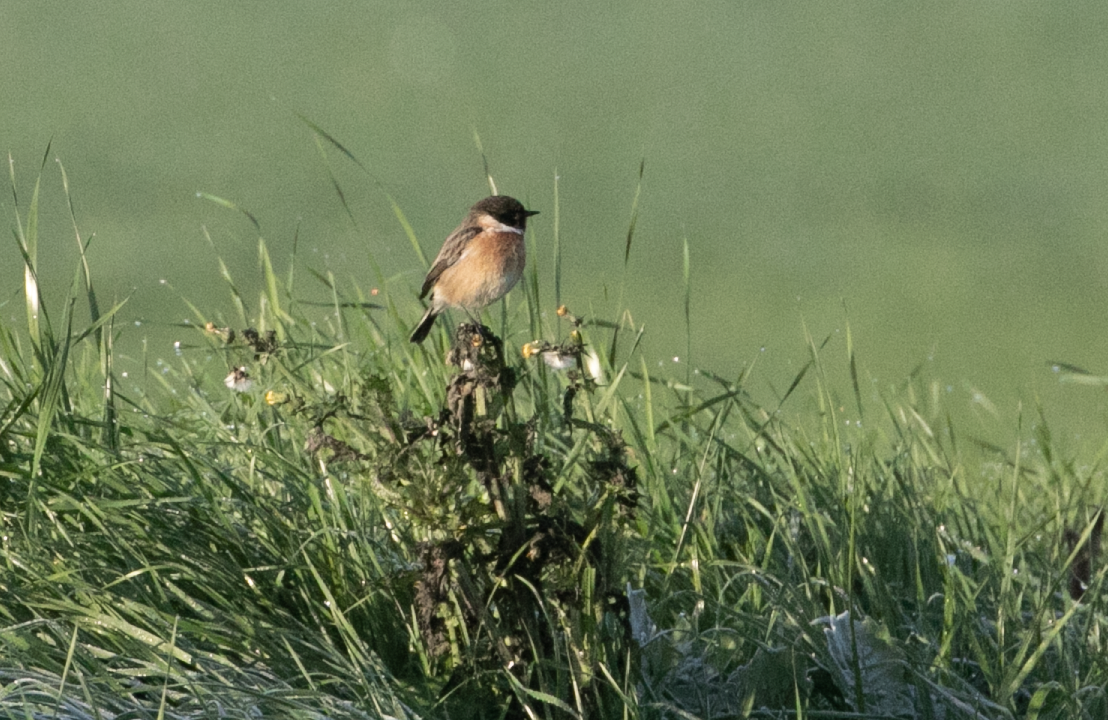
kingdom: Animalia
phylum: Chordata
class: Aves
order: Passeriformes
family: Muscicapidae
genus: Saxicola
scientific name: Saxicola rubicola
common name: European stonechat
